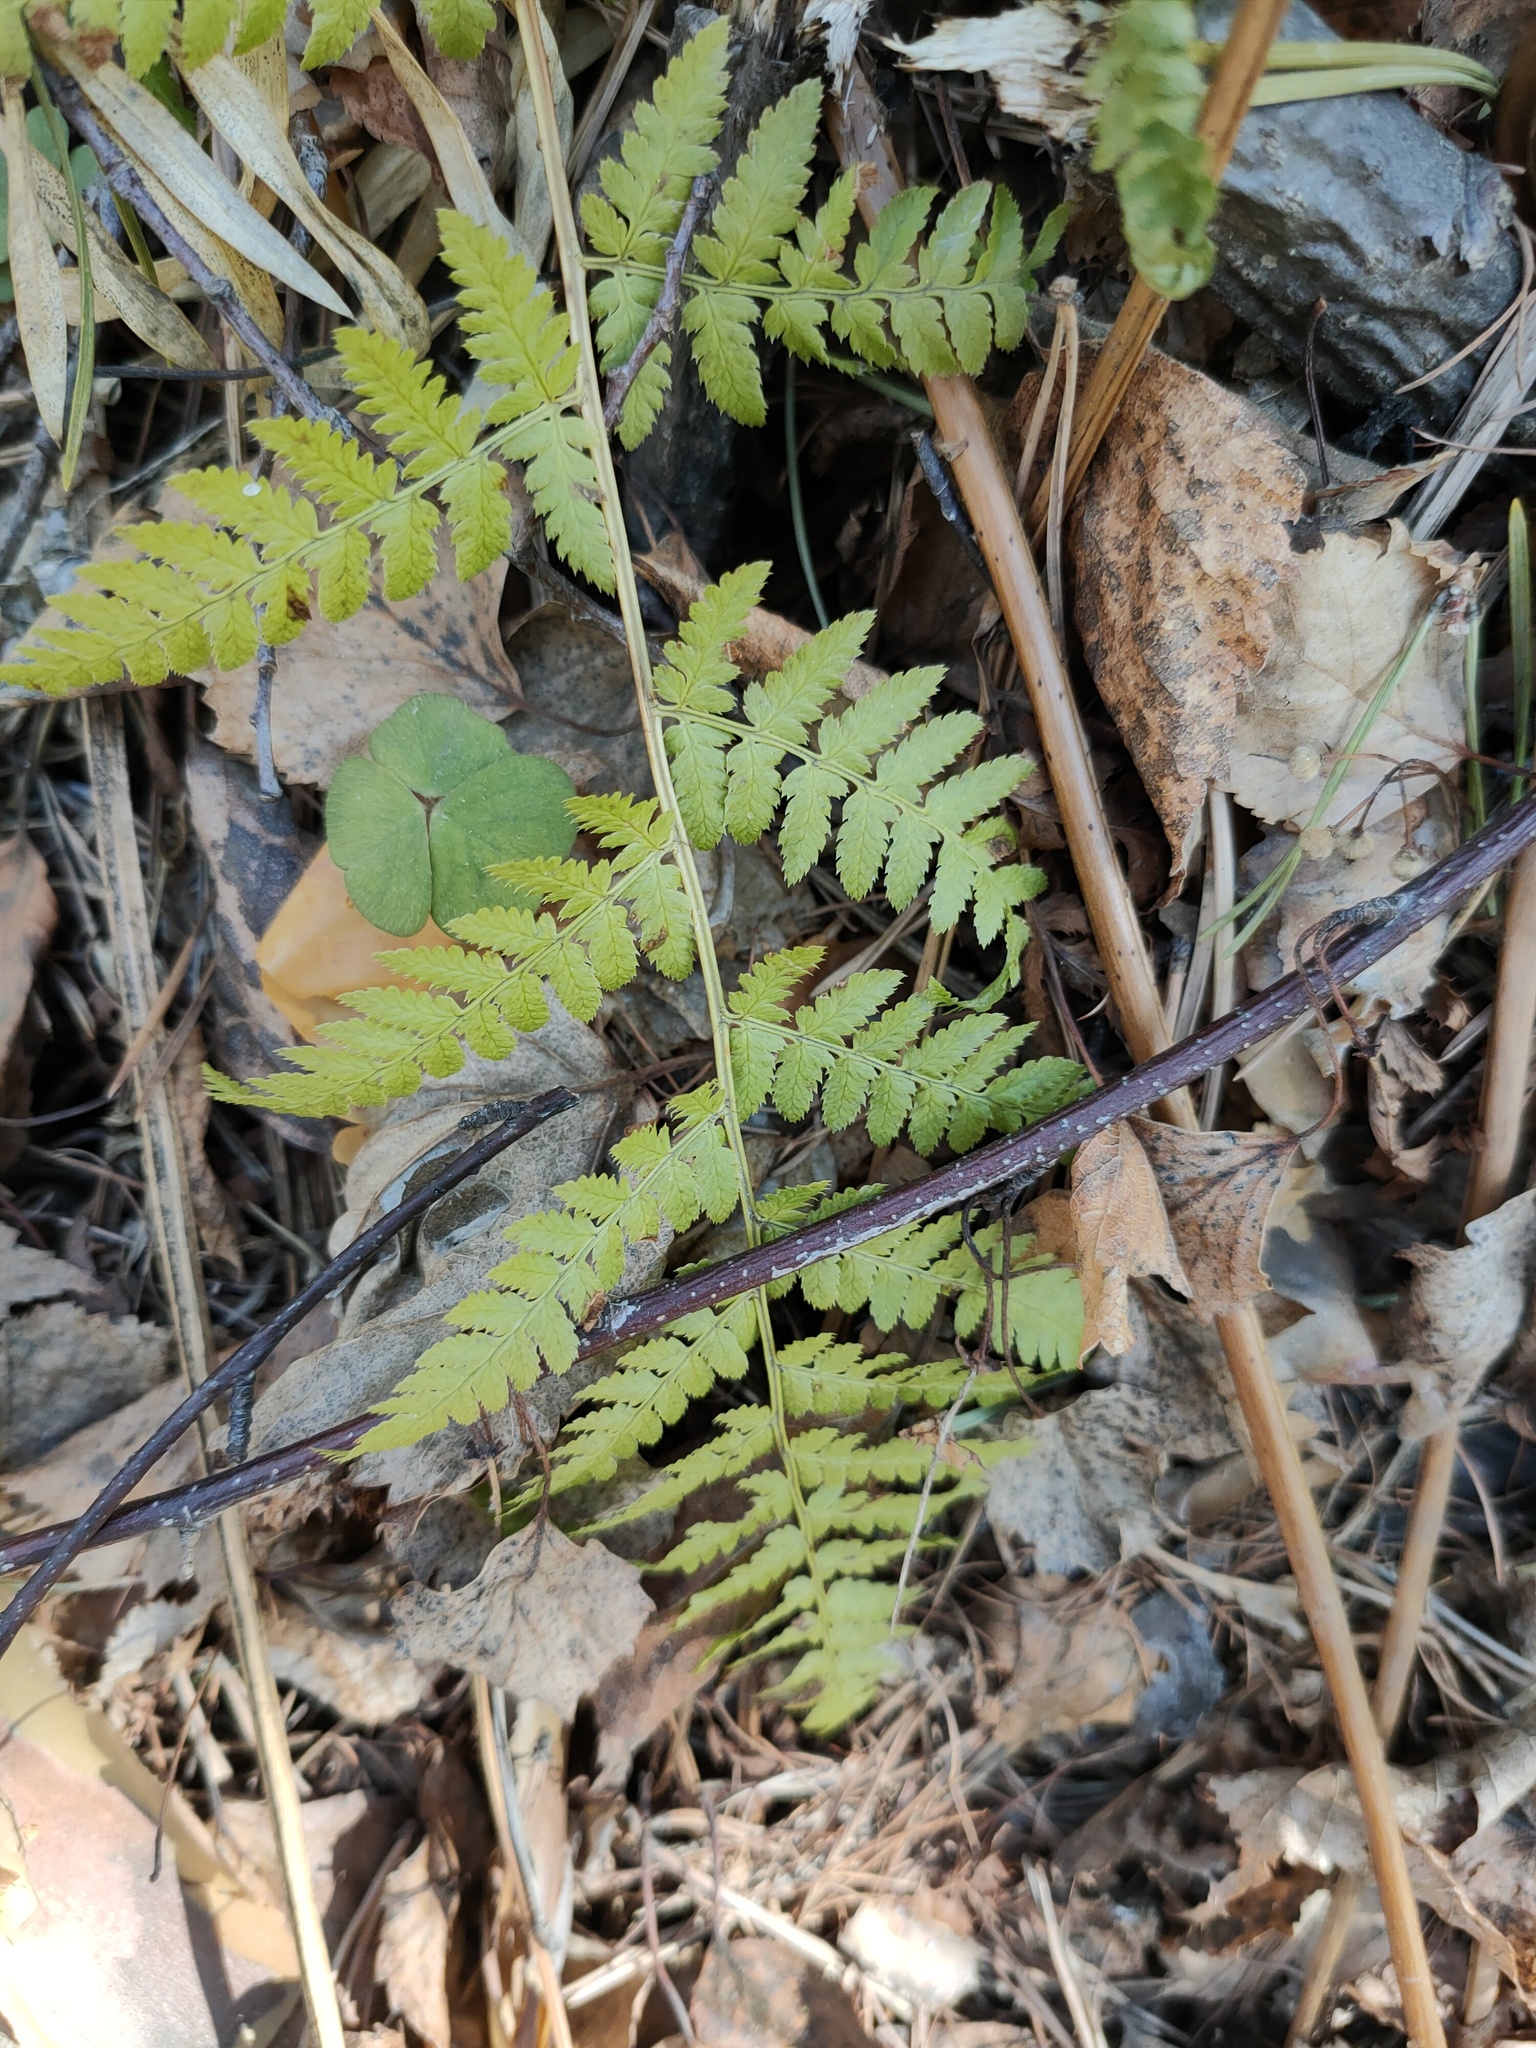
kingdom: Plantae
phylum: Tracheophyta
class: Polypodiopsida
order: Polypodiales
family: Dryopteridaceae
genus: Dryopteris
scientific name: Dryopteris carthusiana
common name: Narrow buckler-fern
